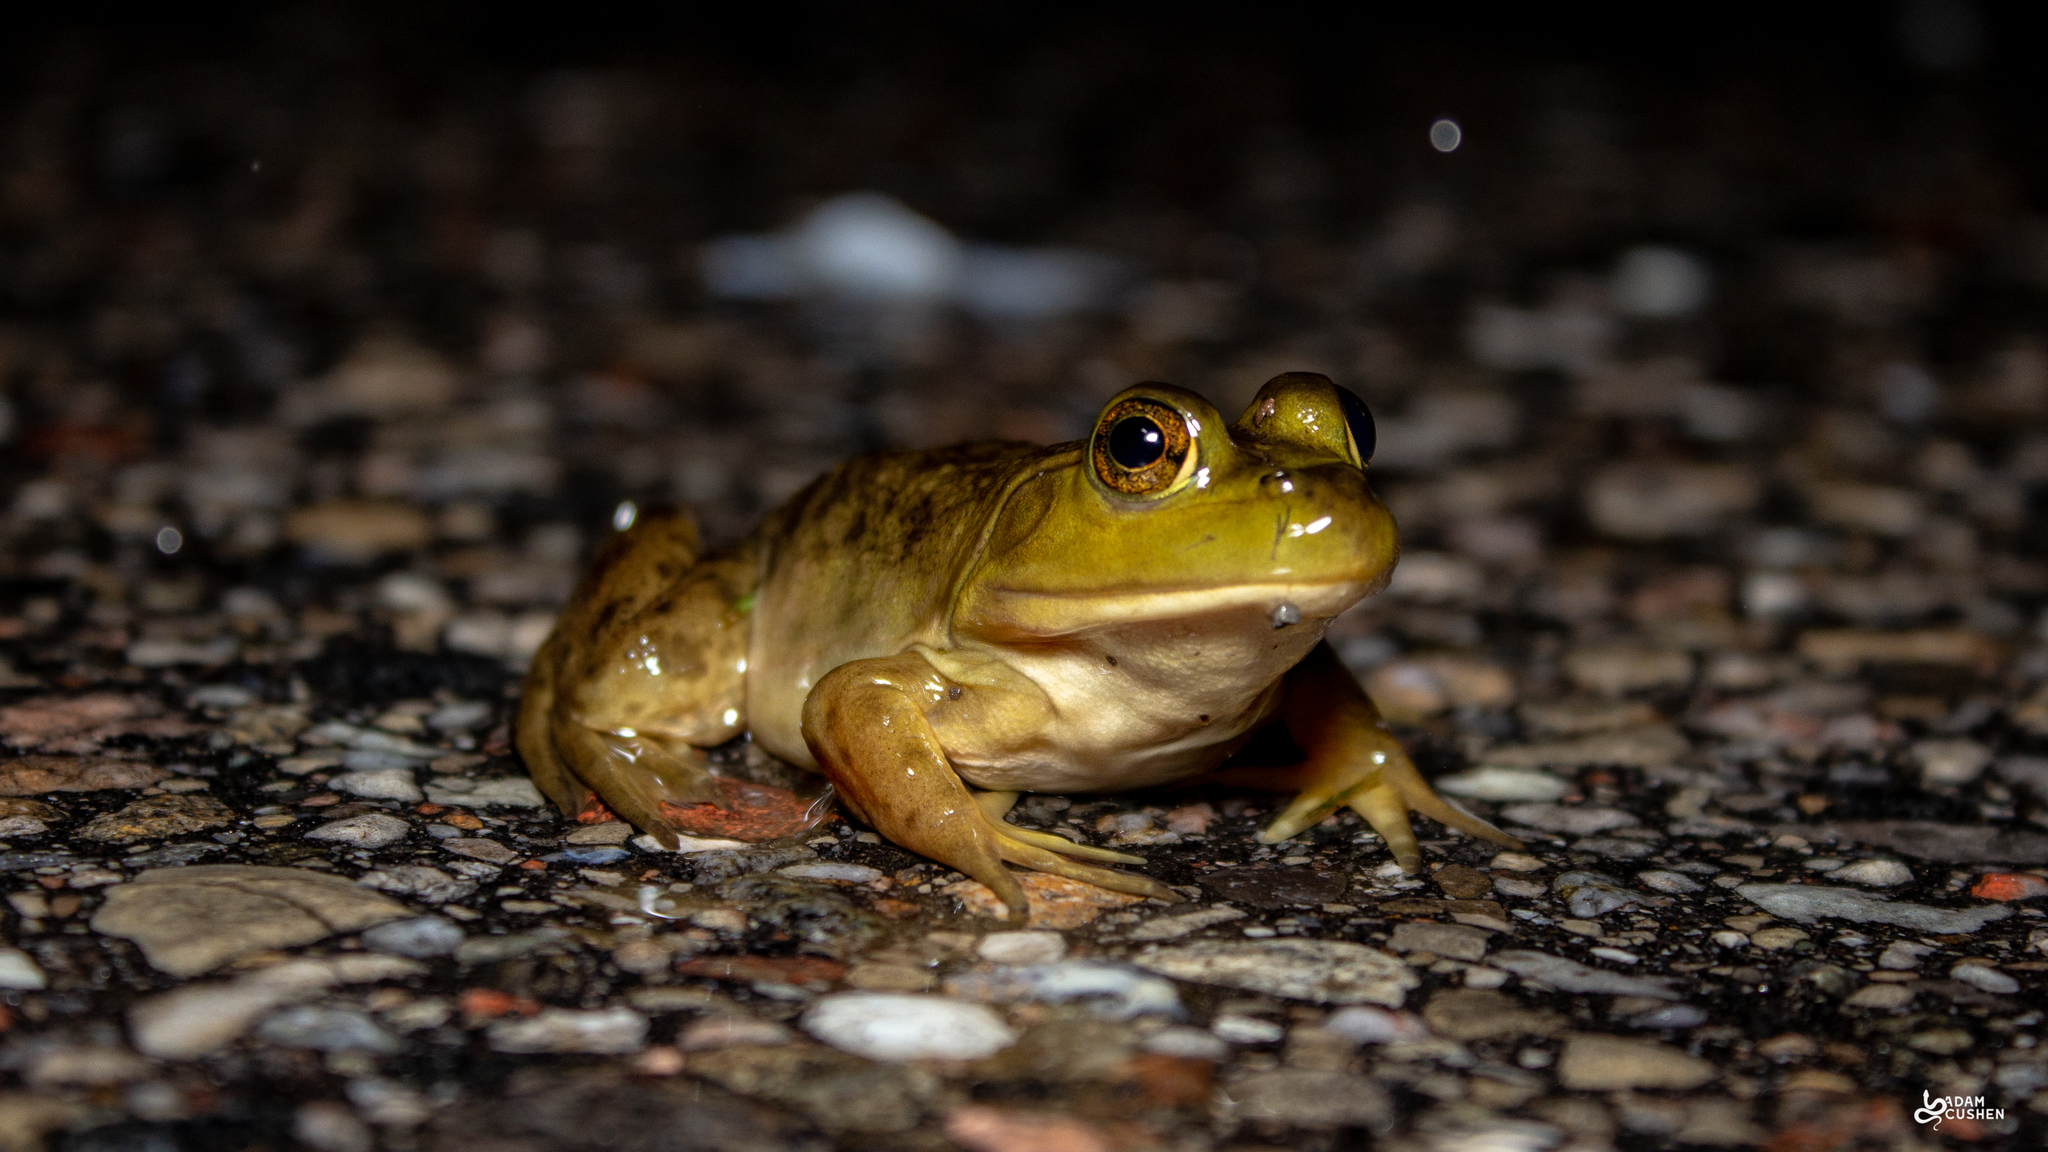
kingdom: Animalia
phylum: Chordata
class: Amphibia
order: Anura
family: Ranidae
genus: Lithobates
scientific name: Lithobates catesbeianus
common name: American bullfrog
